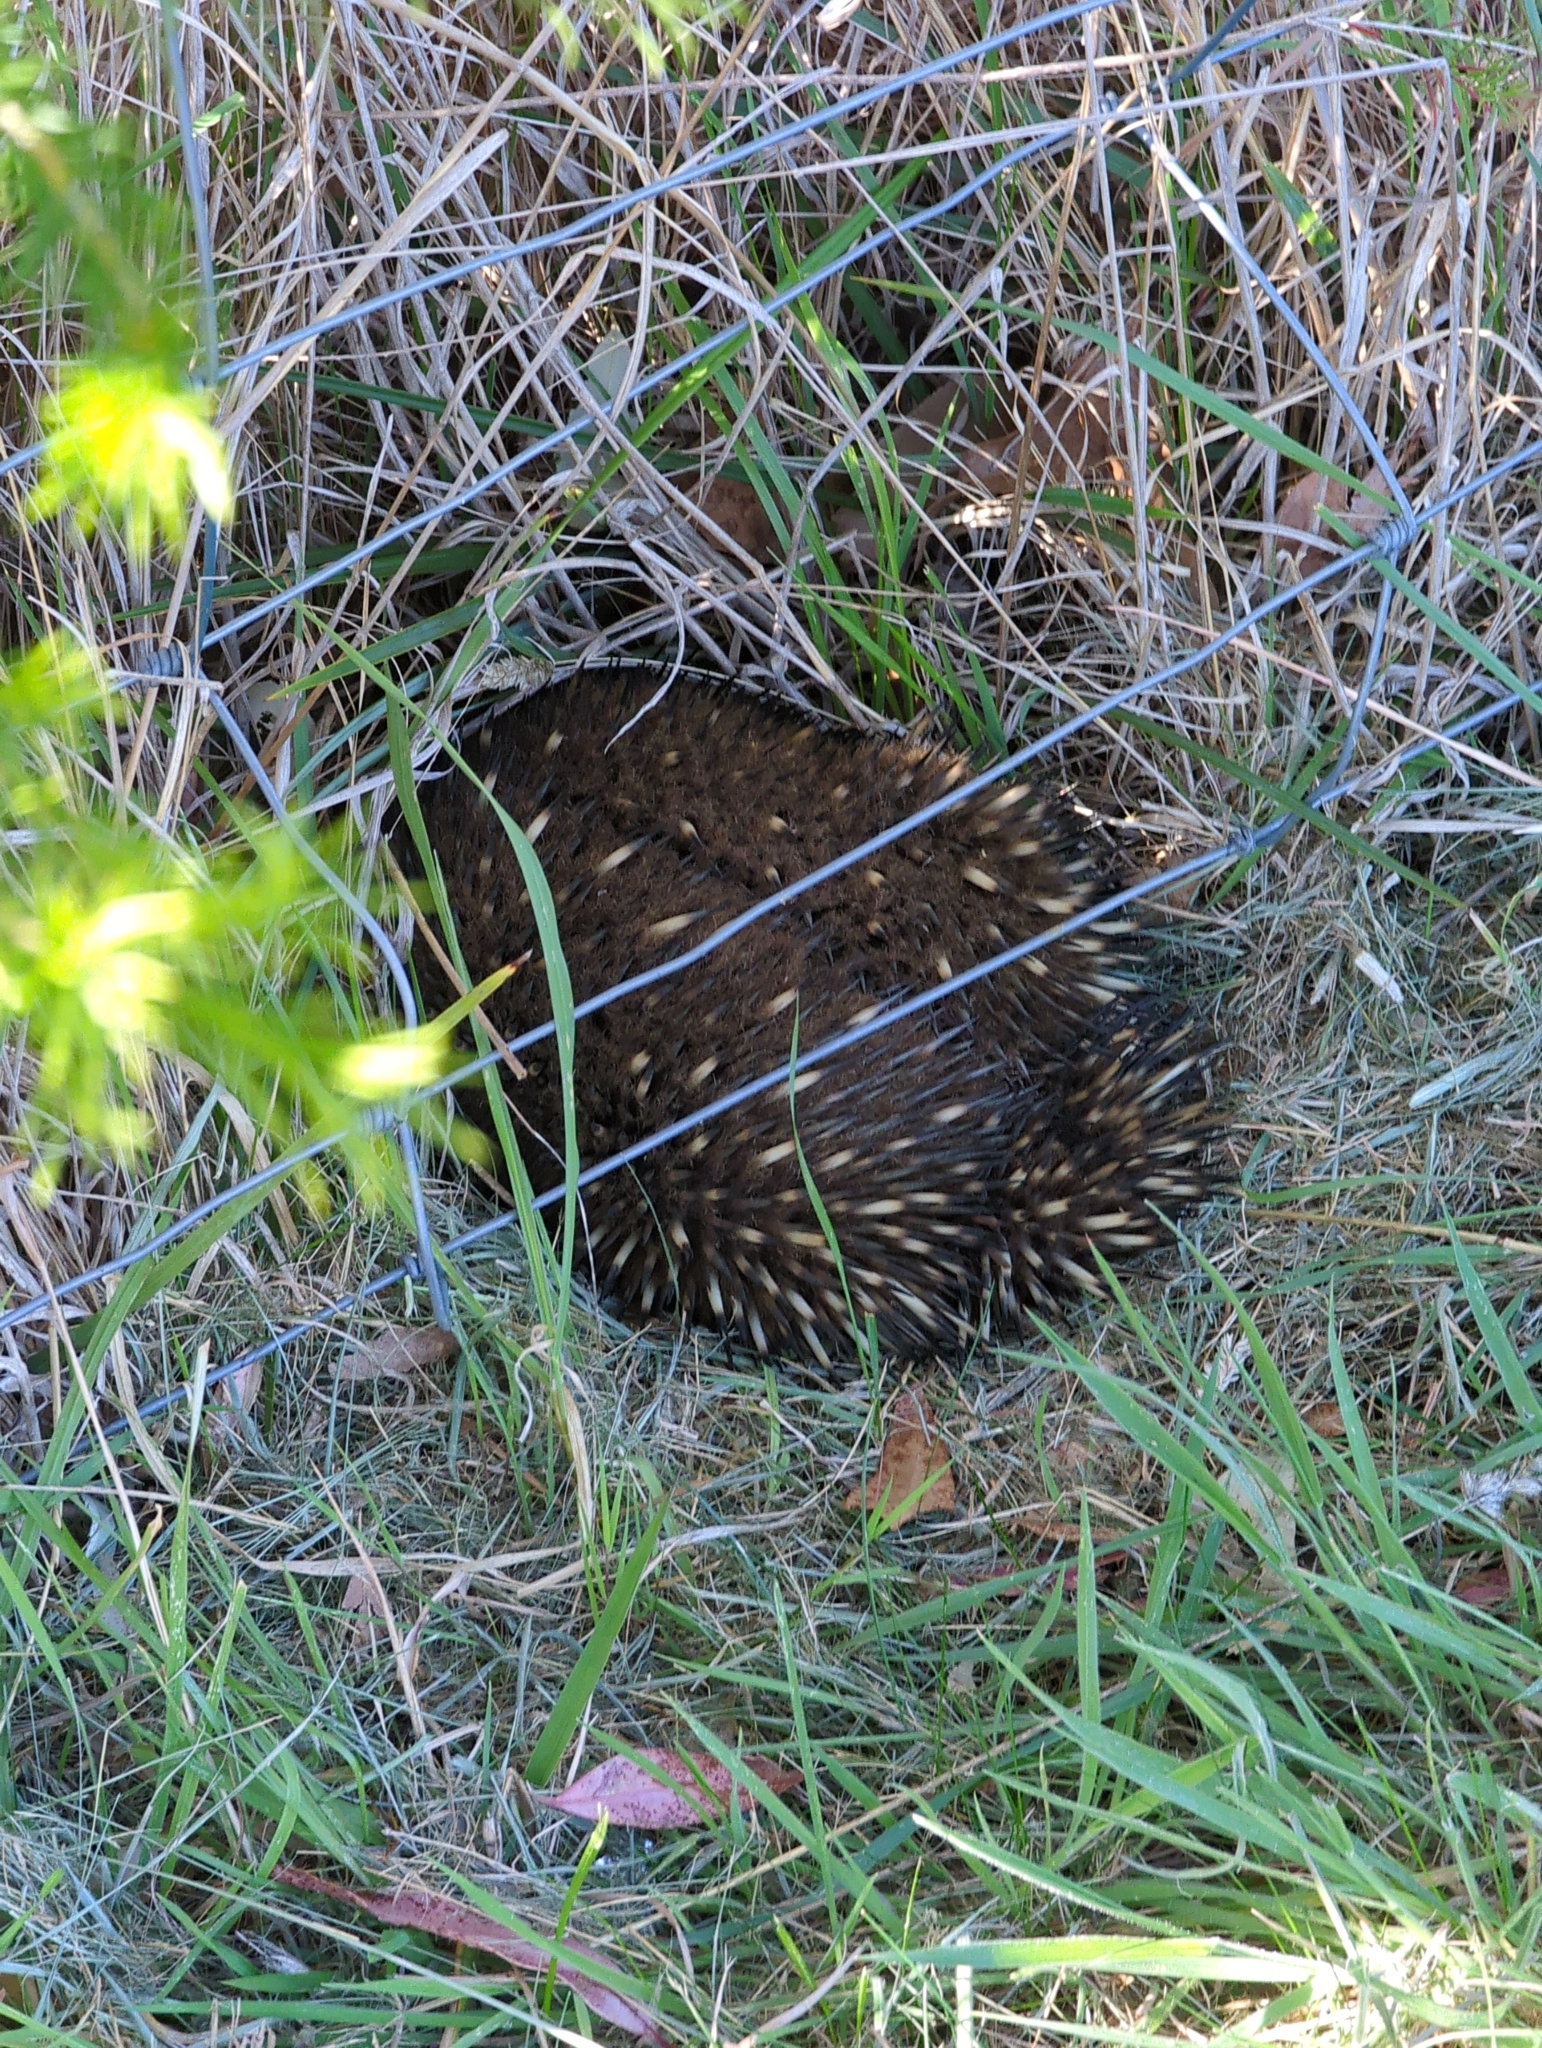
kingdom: Animalia
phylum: Chordata
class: Mammalia
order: Monotremata
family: Tachyglossidae
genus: Tachyglossus
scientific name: Tachyglossus aculeatus
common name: Short-beaked echidna
